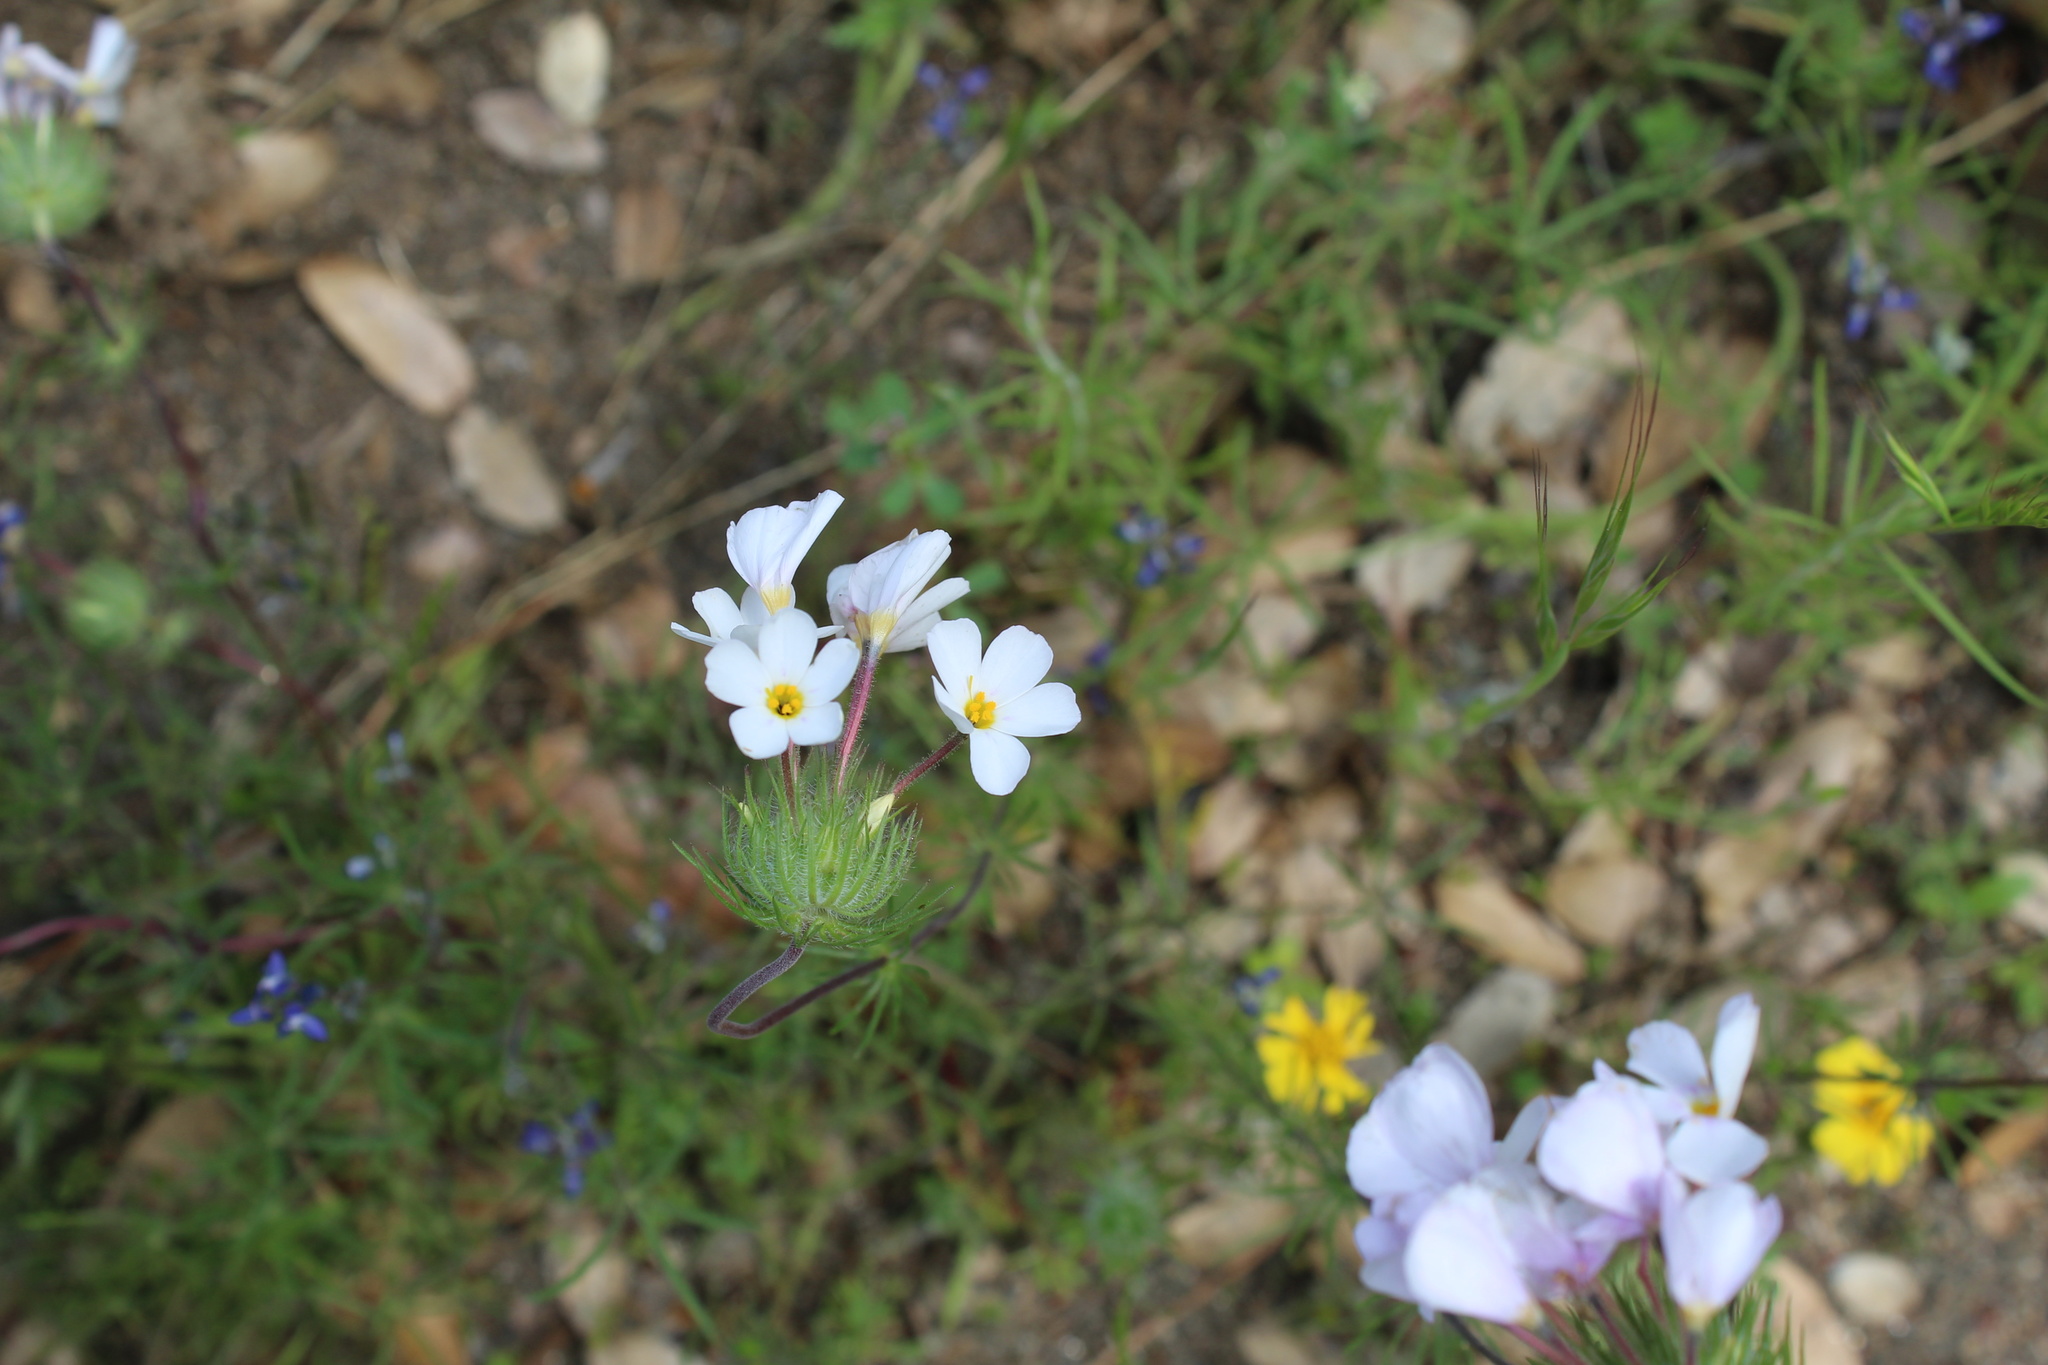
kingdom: Plantae
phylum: Tracheophyta
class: Magnoliopsida
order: Ericales
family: Polemoniaceae
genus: Leptosiphon
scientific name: Leptosiphon montanus
